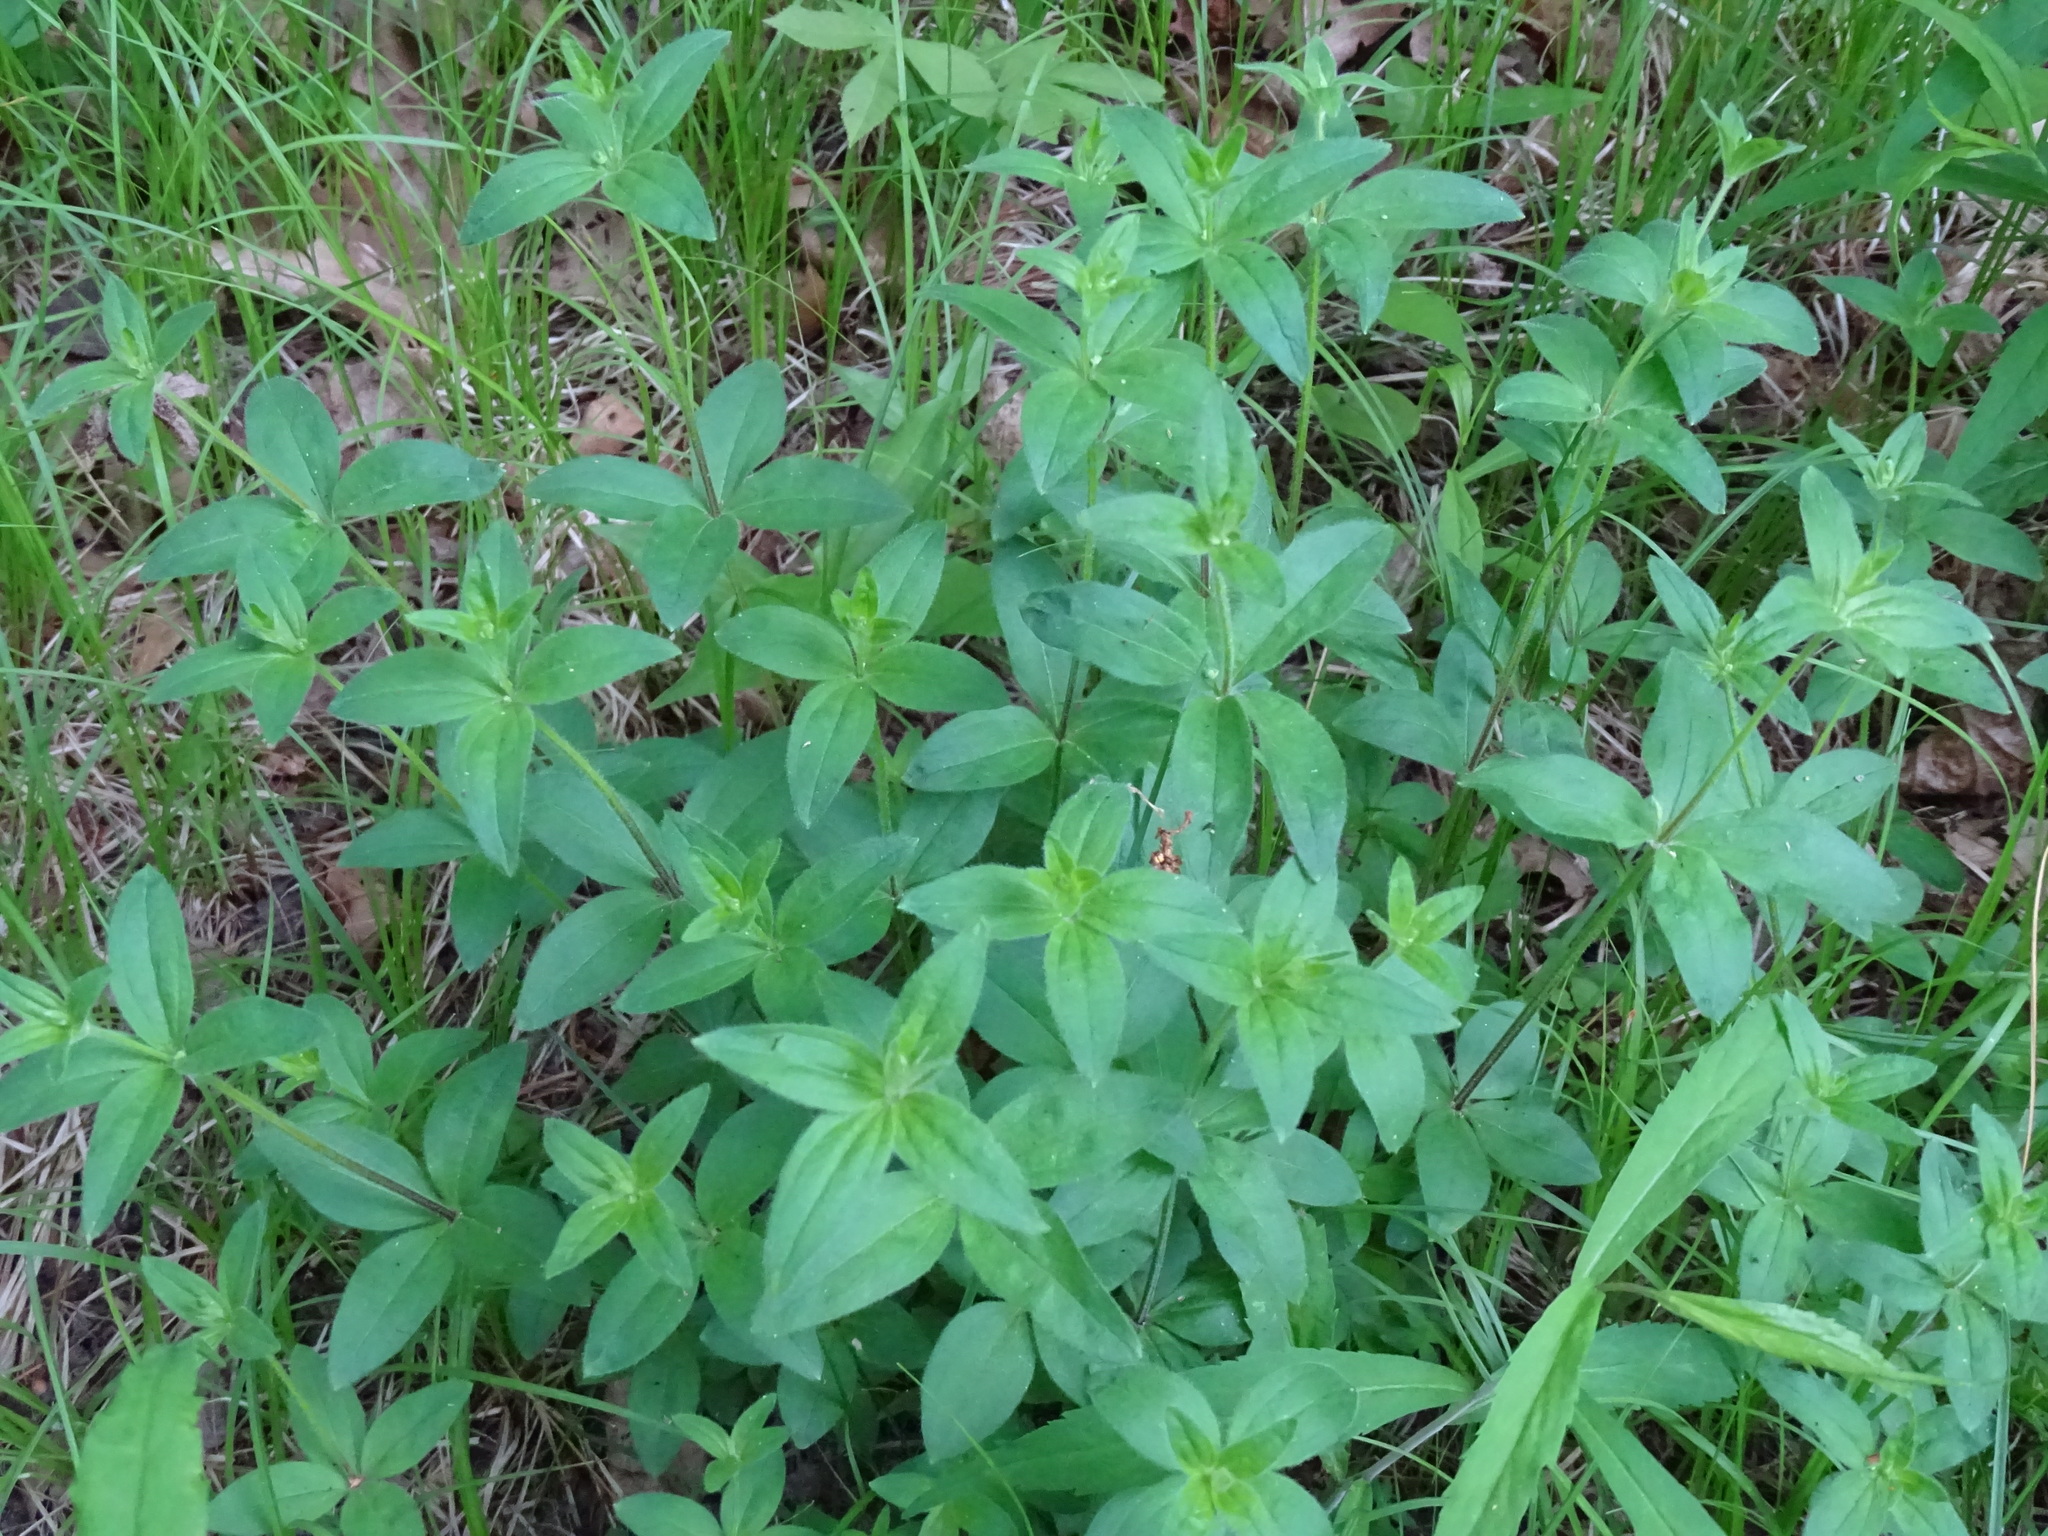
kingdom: Plantae
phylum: Tracheophyta
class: Magnoliopsida
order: Gentianales
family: Rubiaceae
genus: Galium
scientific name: Galium circaezans
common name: Forest bedstraw
